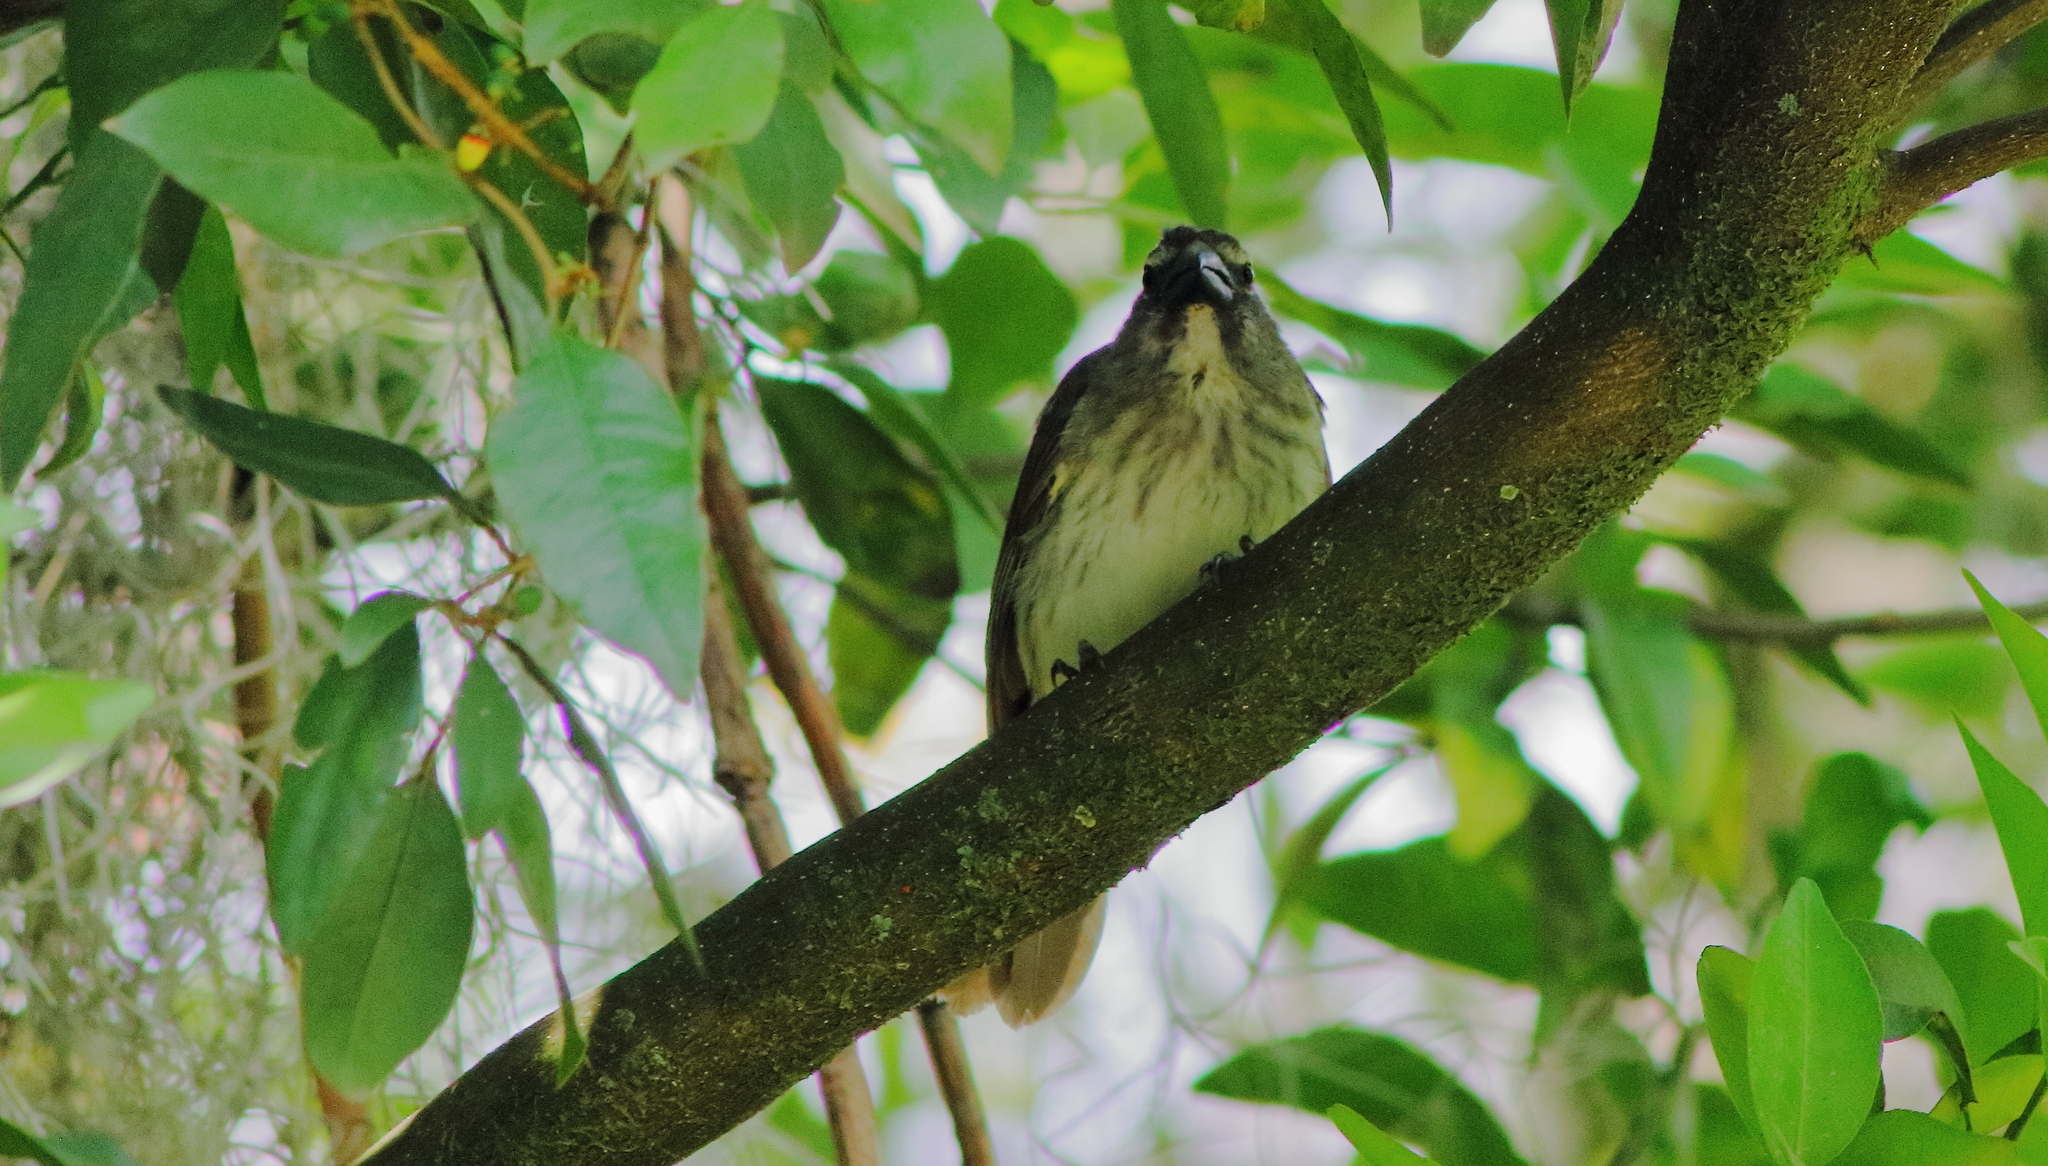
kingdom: Animalia
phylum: Chordata
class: Aves
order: Passeriformes
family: Thraupidae
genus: Saltator
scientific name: Saltator striatipectus
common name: Streaked saltator
